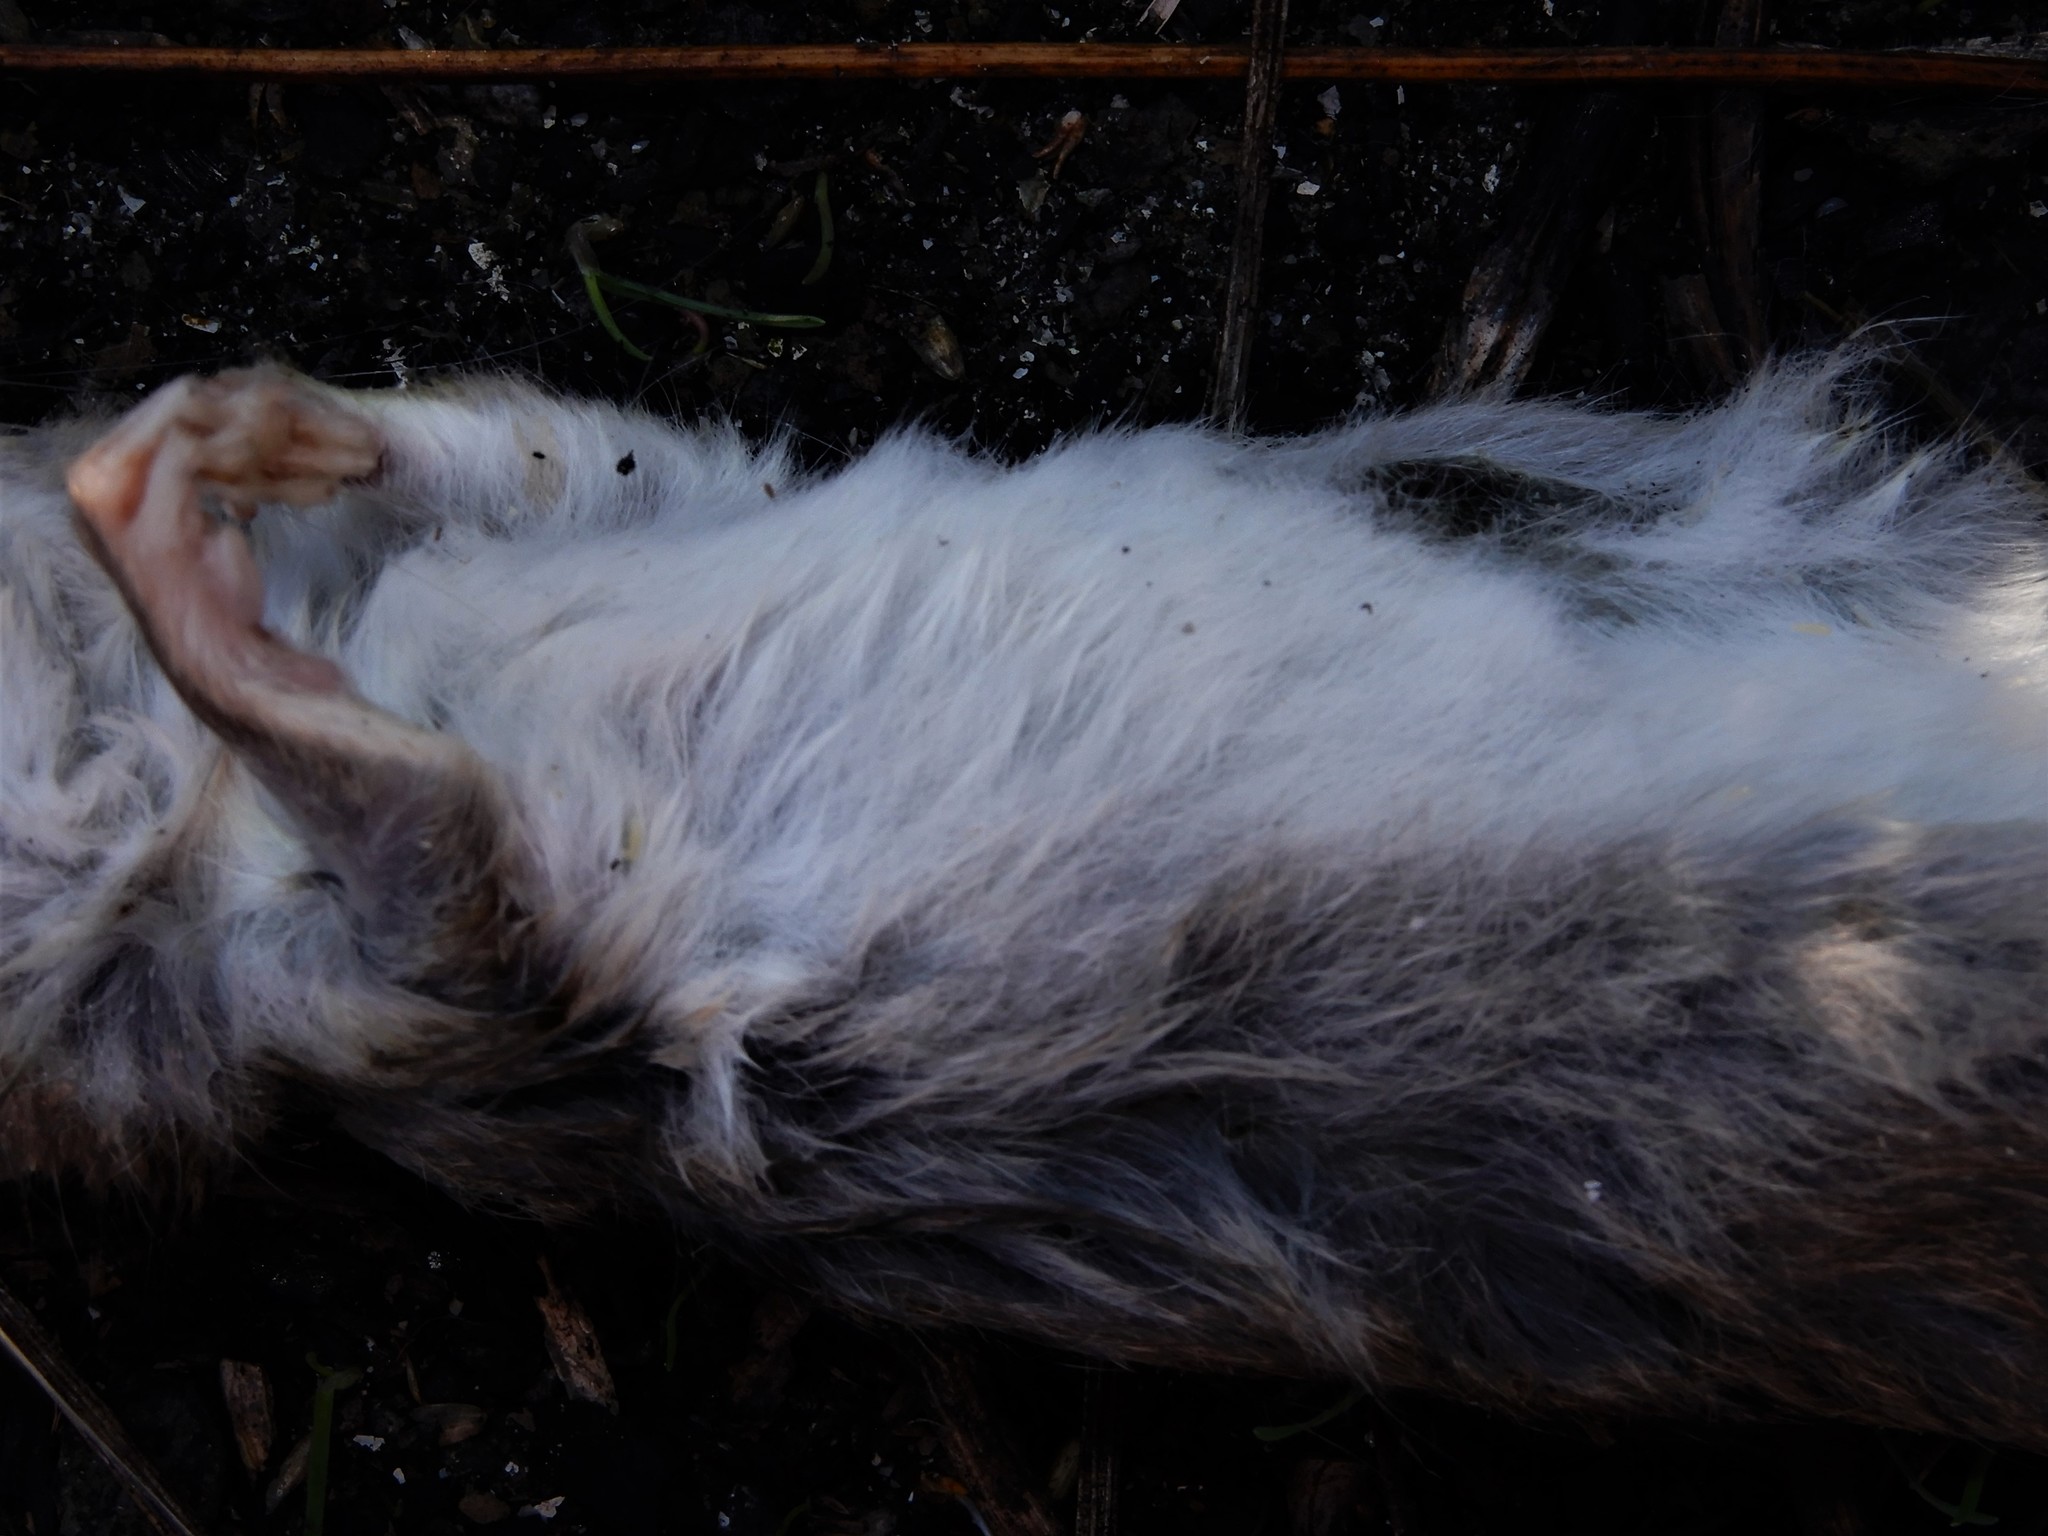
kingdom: Animalia
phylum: Chordata
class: Mammalia
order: Rodentia
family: Muridae
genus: Rattus
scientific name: Rattus rattus
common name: Black rat
